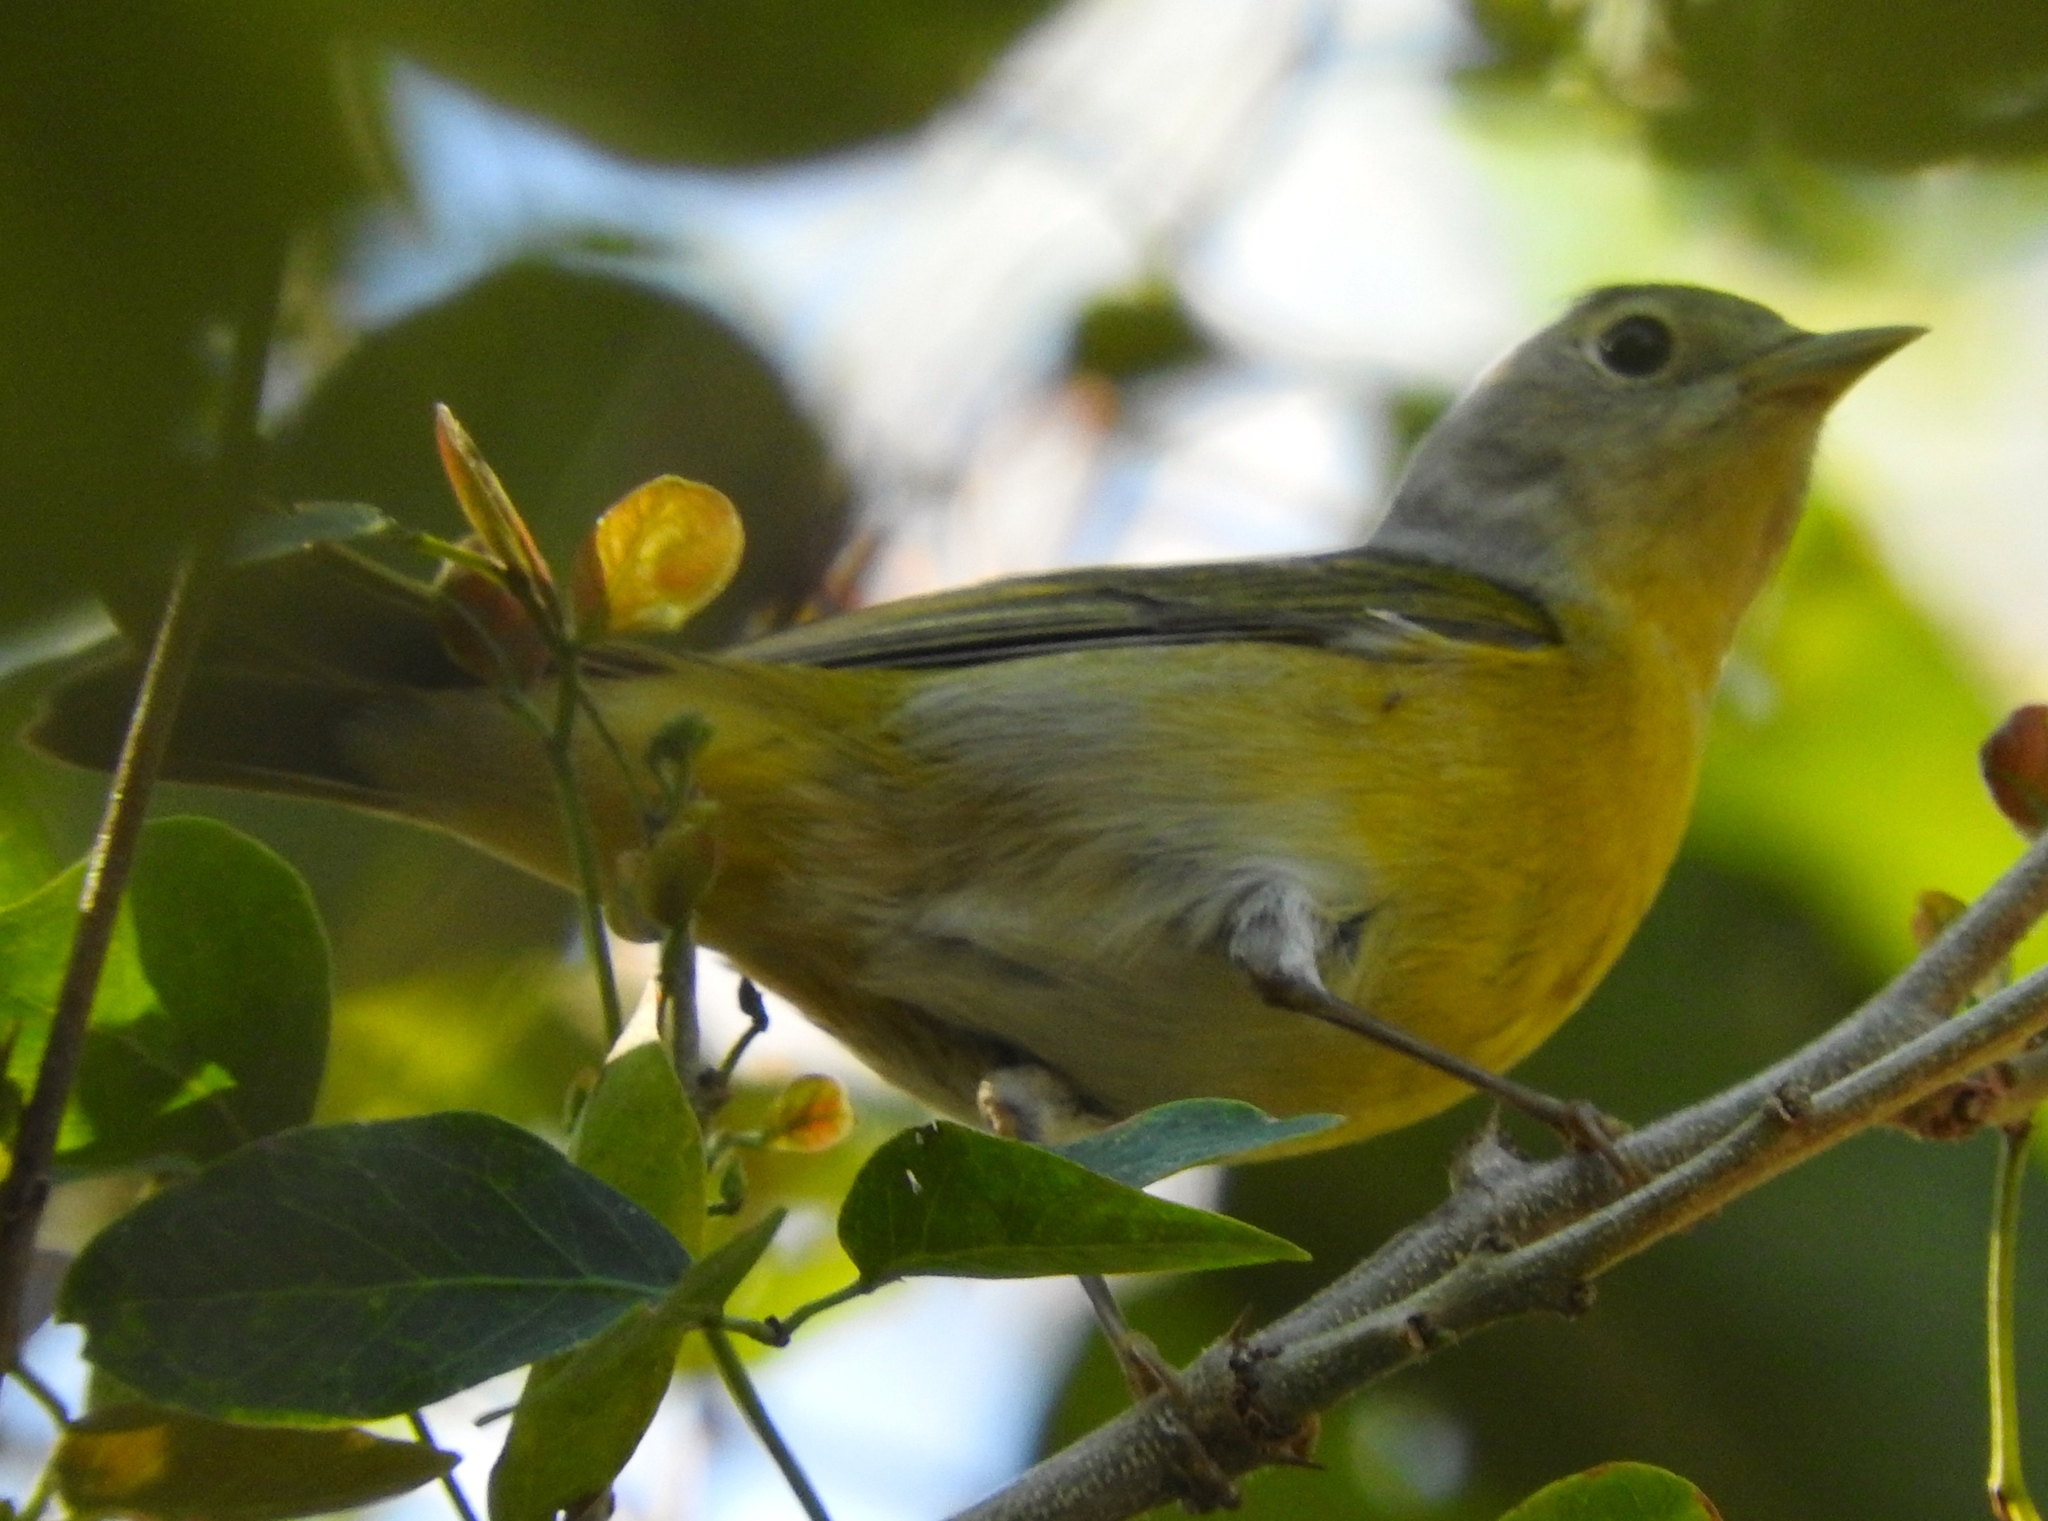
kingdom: Animalia
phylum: Chordata
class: Aves
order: Passeriformes
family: Parulidae
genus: Leiothlypis
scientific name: Leiothlypis ruficapilla
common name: Nashville warbler
